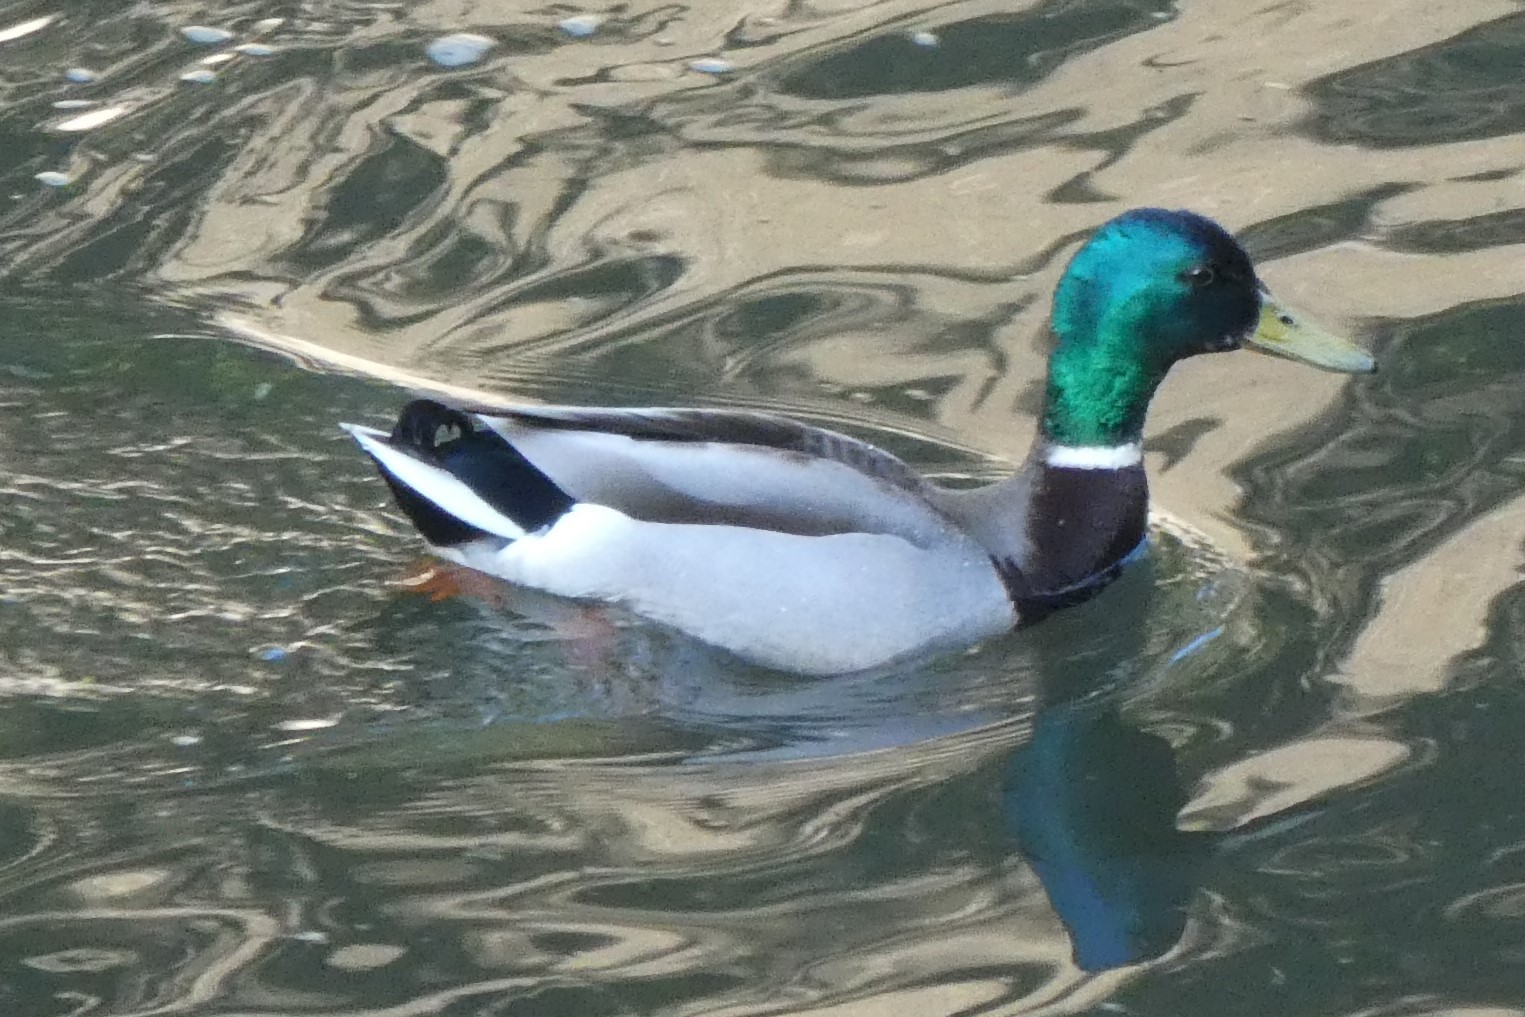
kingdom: Animalia
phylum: Chordata
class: Aves
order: Anseriformes
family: Anatidae
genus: Anas
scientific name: Anas platyrhynchos
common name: Mallard
